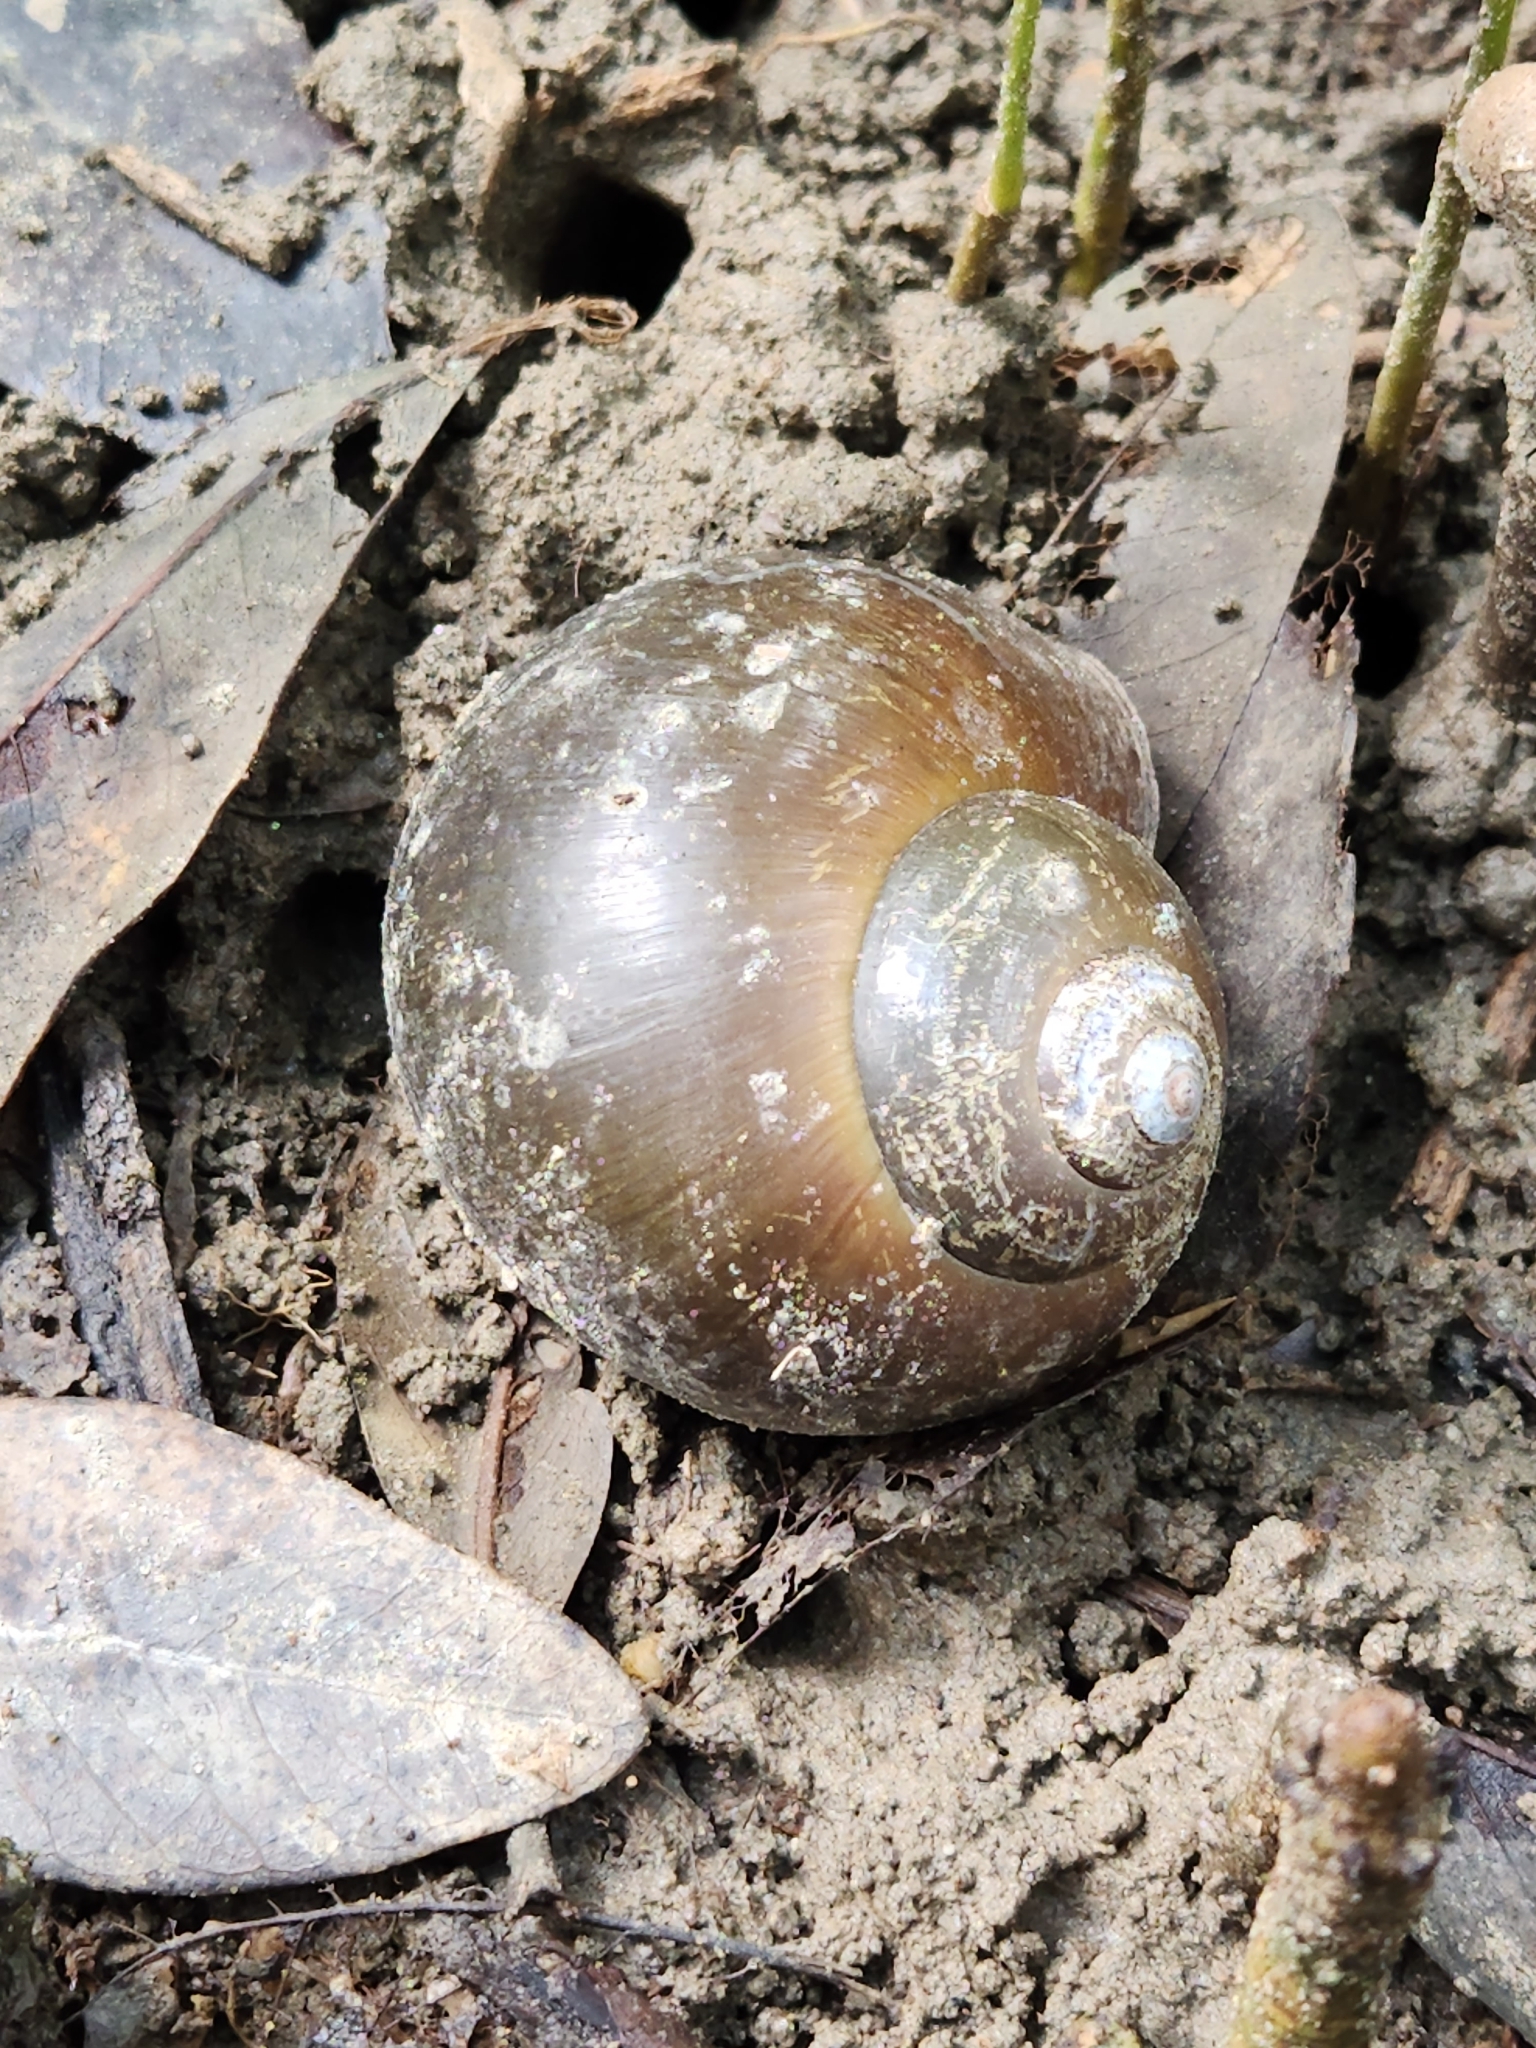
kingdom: Animalia
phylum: Mollusca
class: Gastropoda
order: Architaenioglossa
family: Ampullariidae
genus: Pomacea
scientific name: Pomacea flagellata
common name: Maya apple snail
